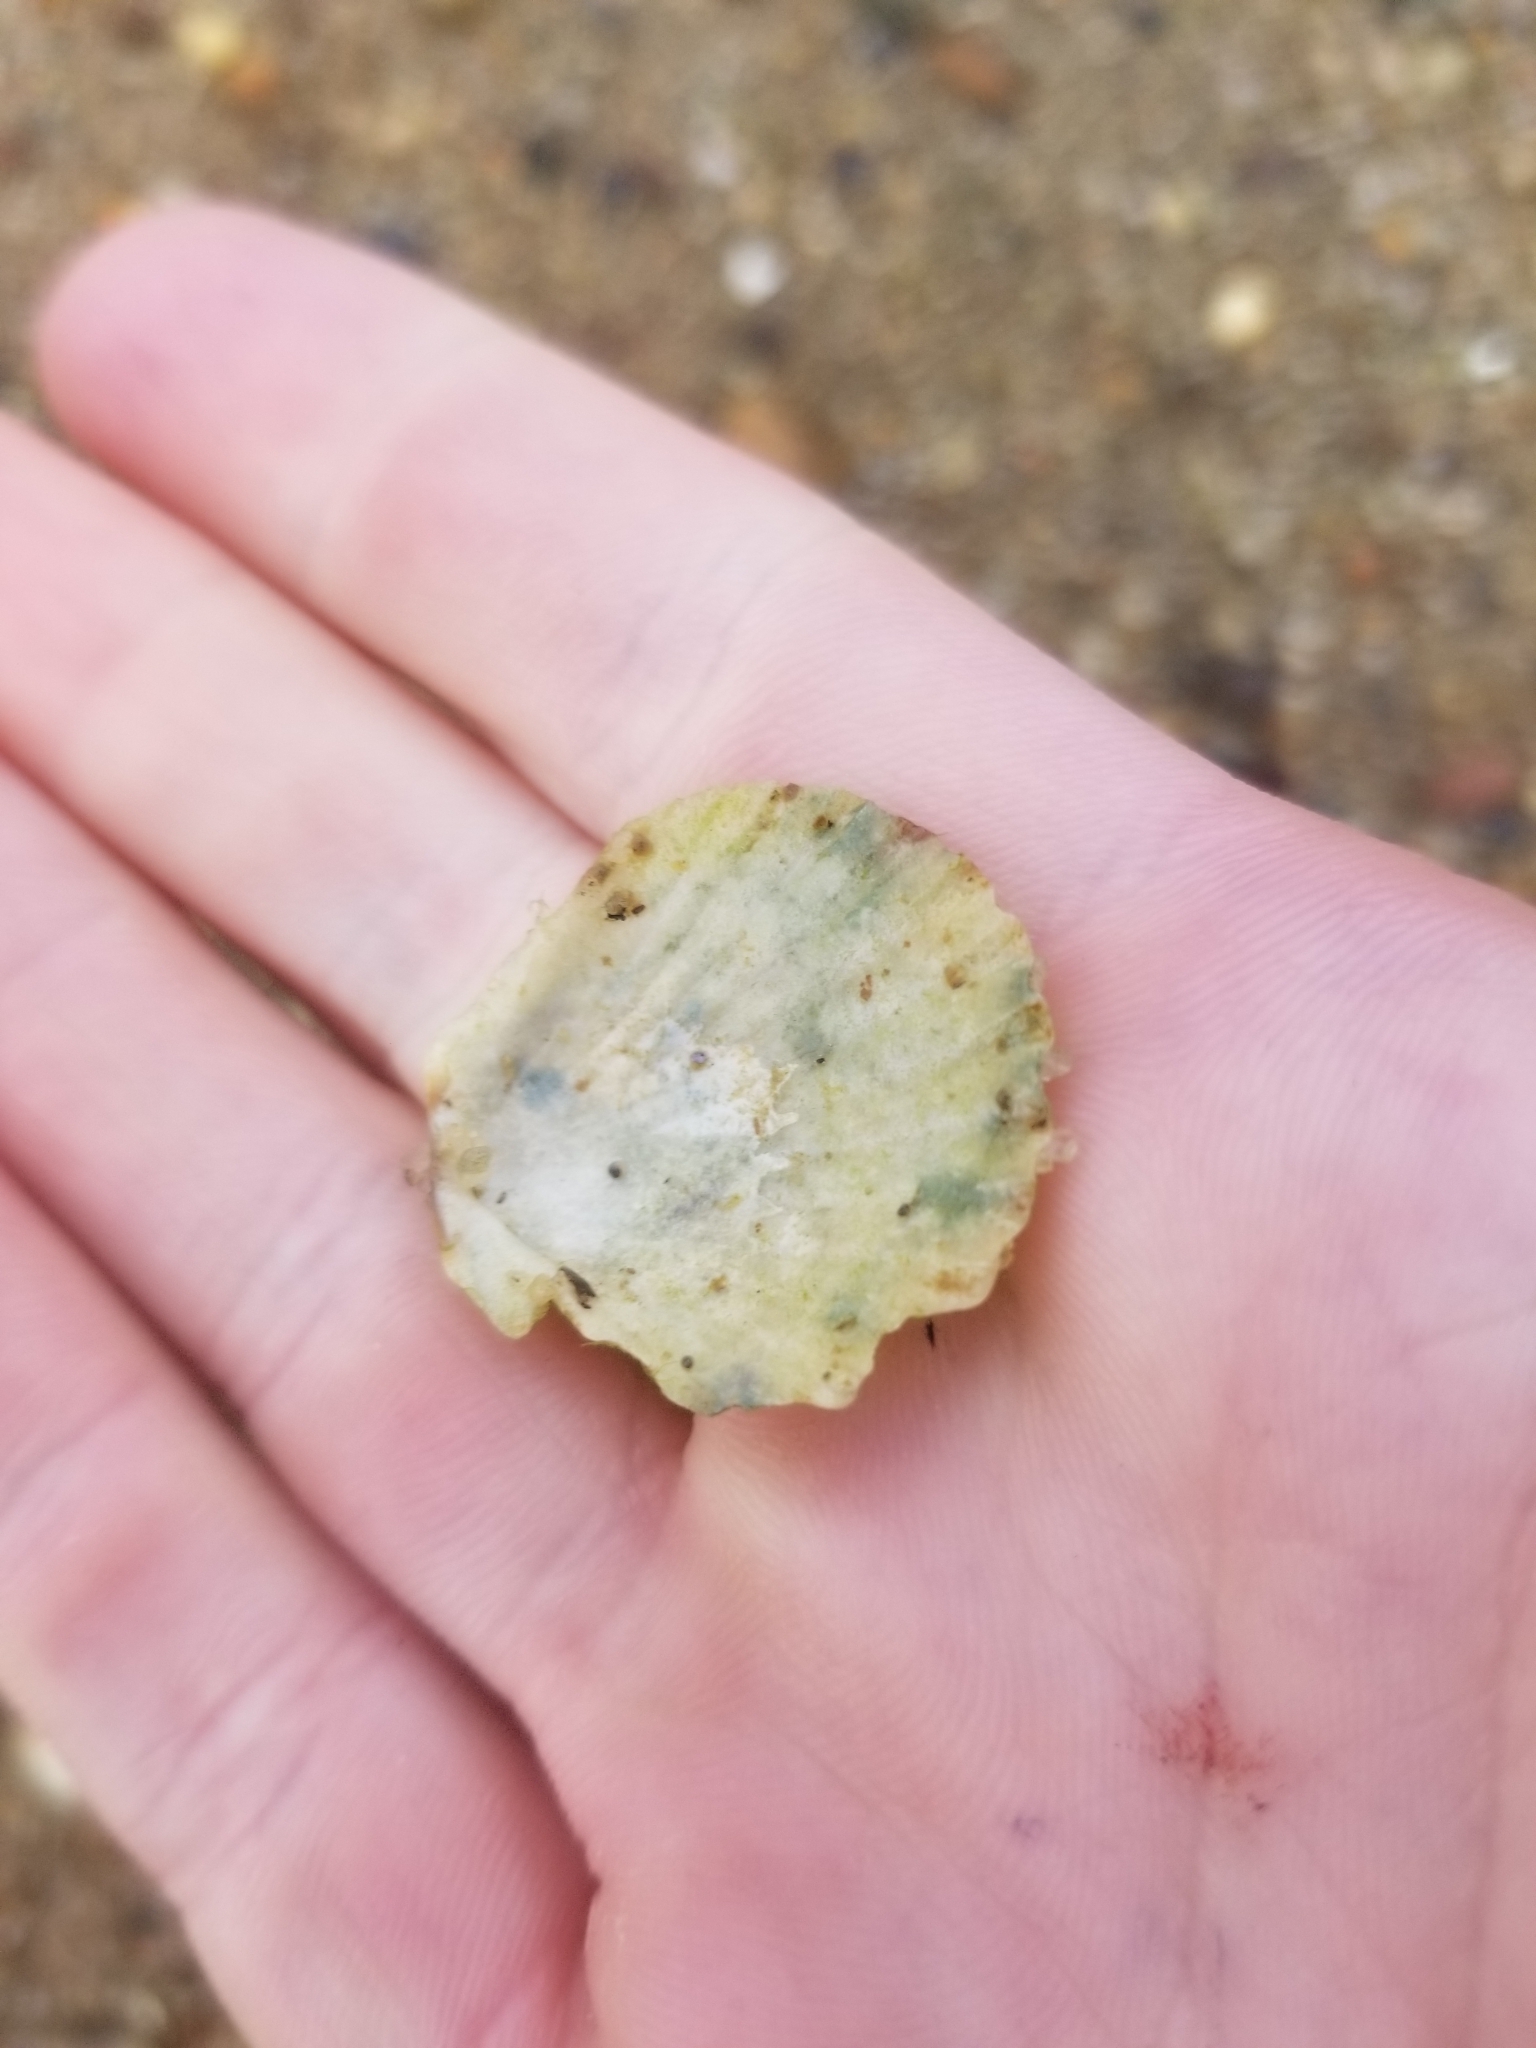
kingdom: Animalia
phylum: Mollusca
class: Bivalvia
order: Pectinida
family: Pectinidae
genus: Argopecten
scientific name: Argopecten irradians
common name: Atlantic bay scallop
